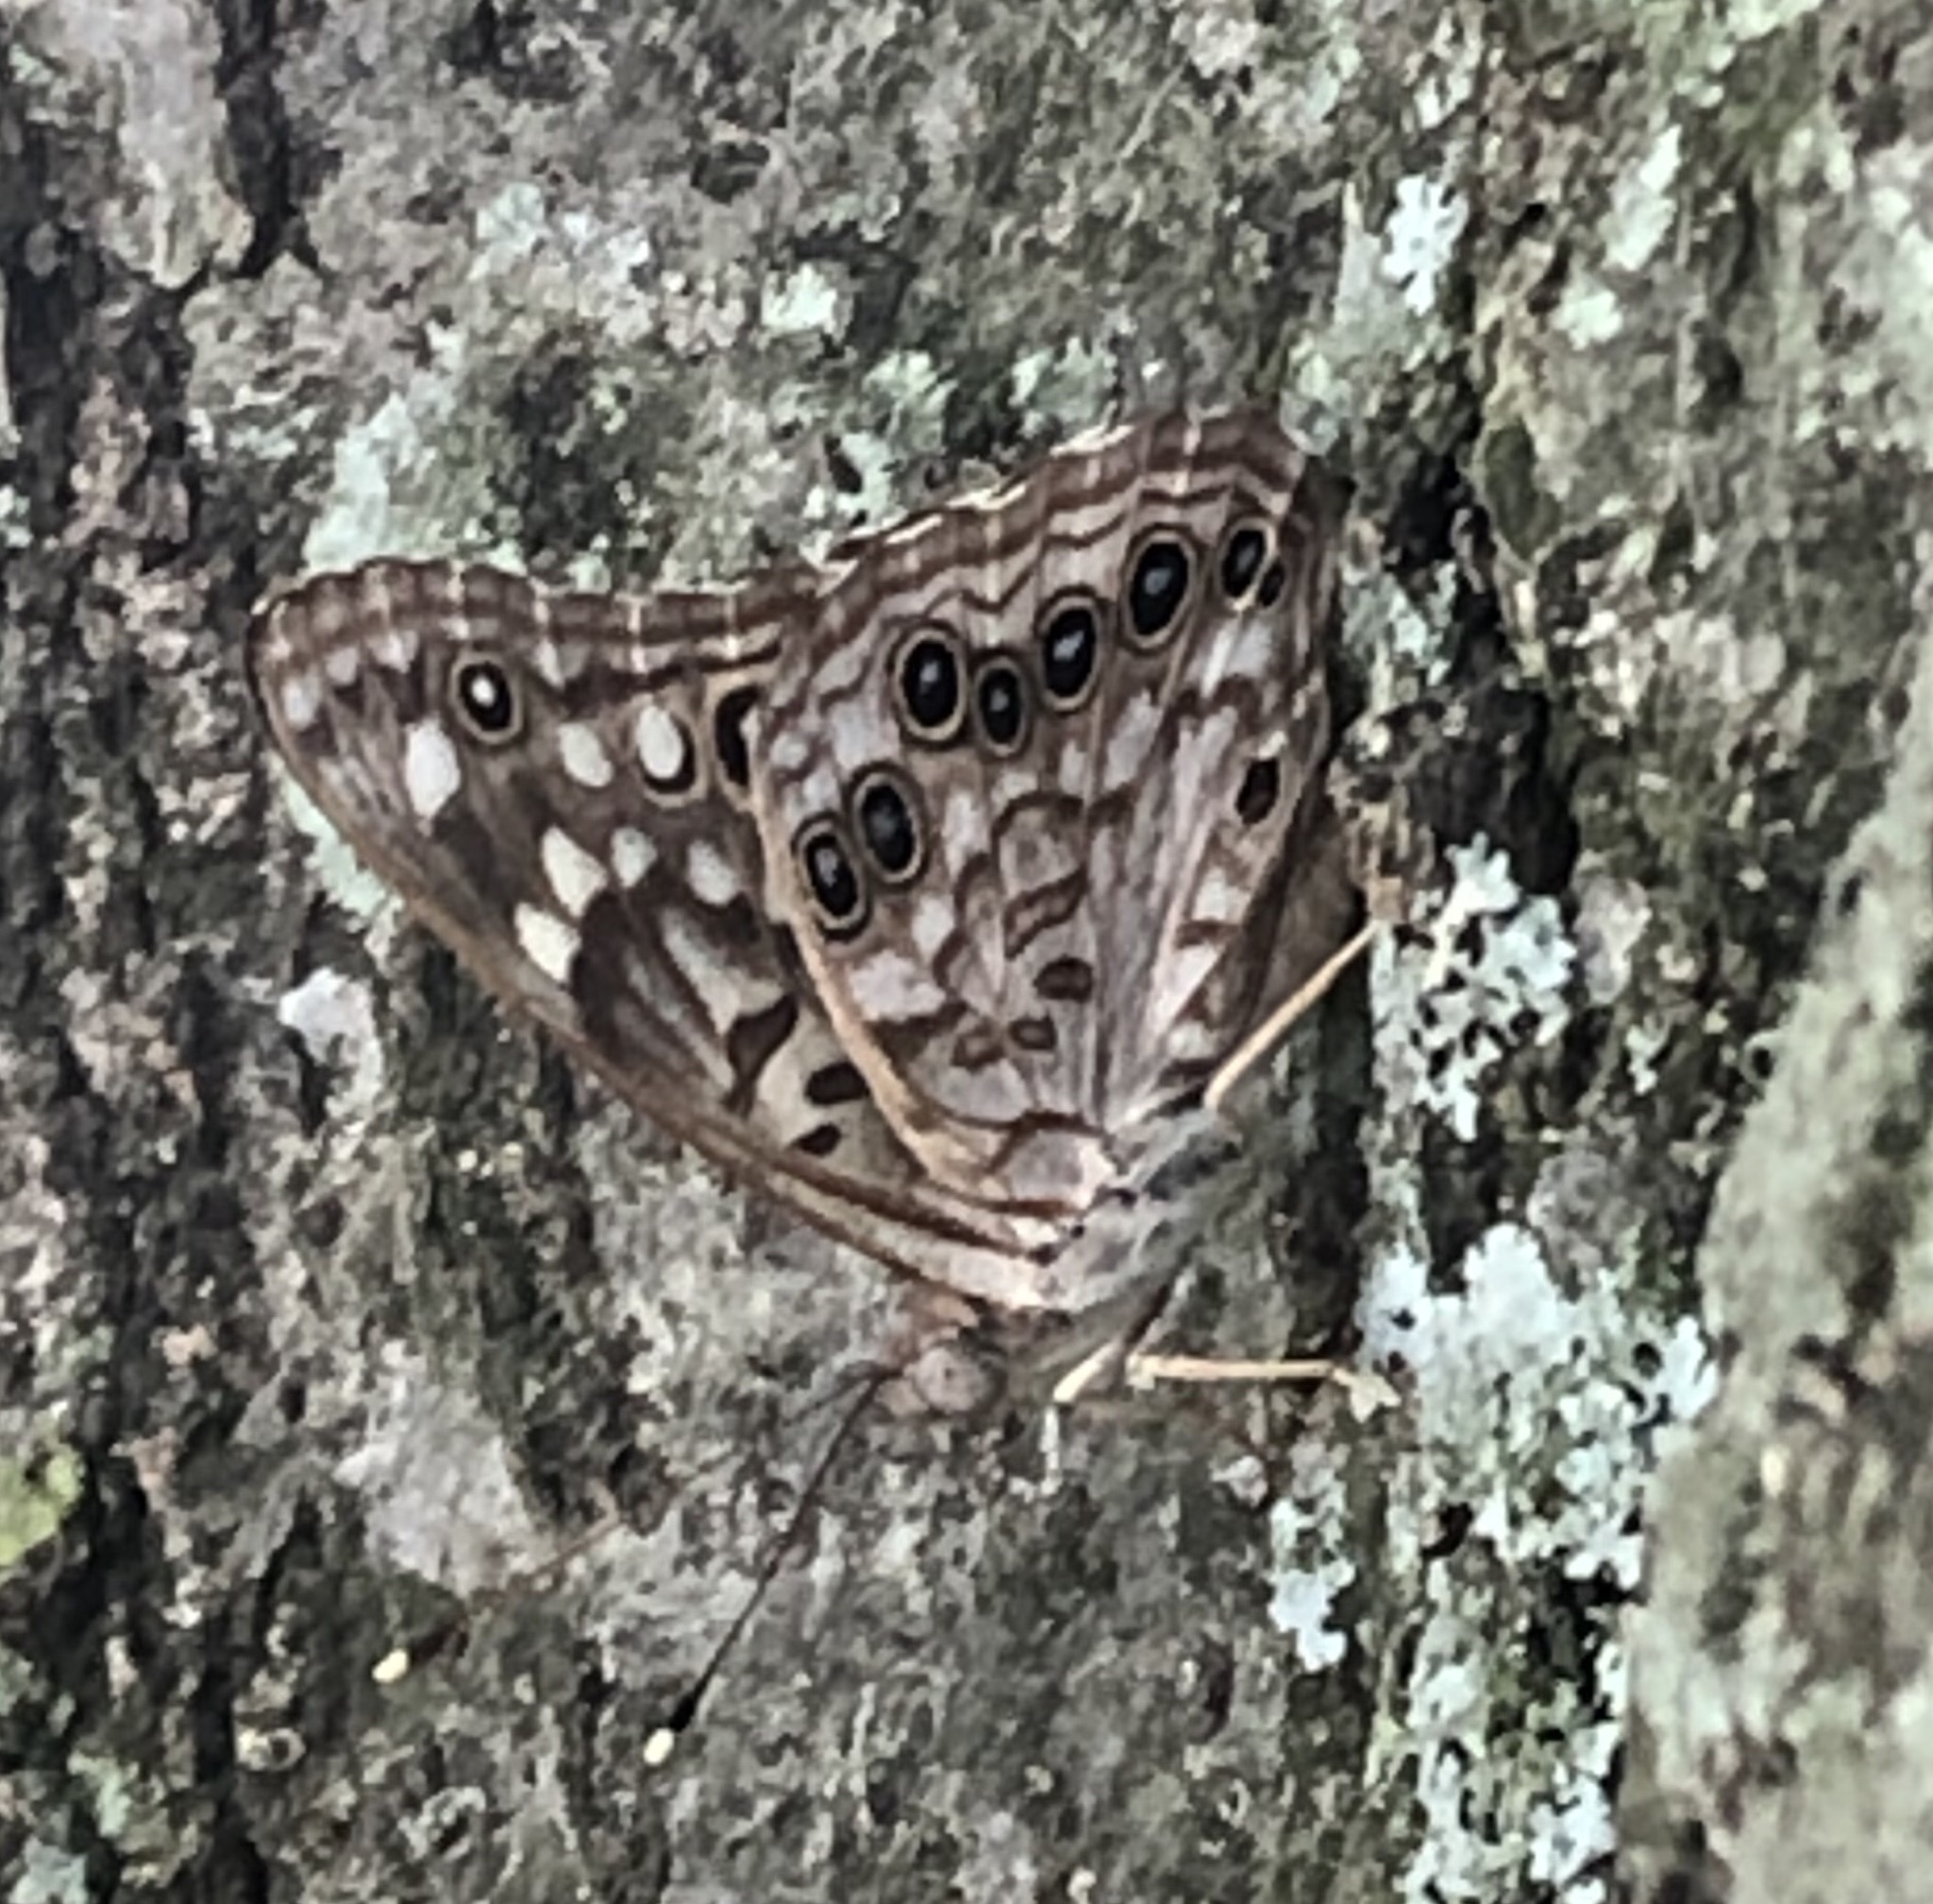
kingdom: Animalia
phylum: Arthropoda
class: Insecta
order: Lepidoptera
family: Nymphalidae
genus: Asterocampa
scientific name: Asterocampa celtis
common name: Hackberry emperor
